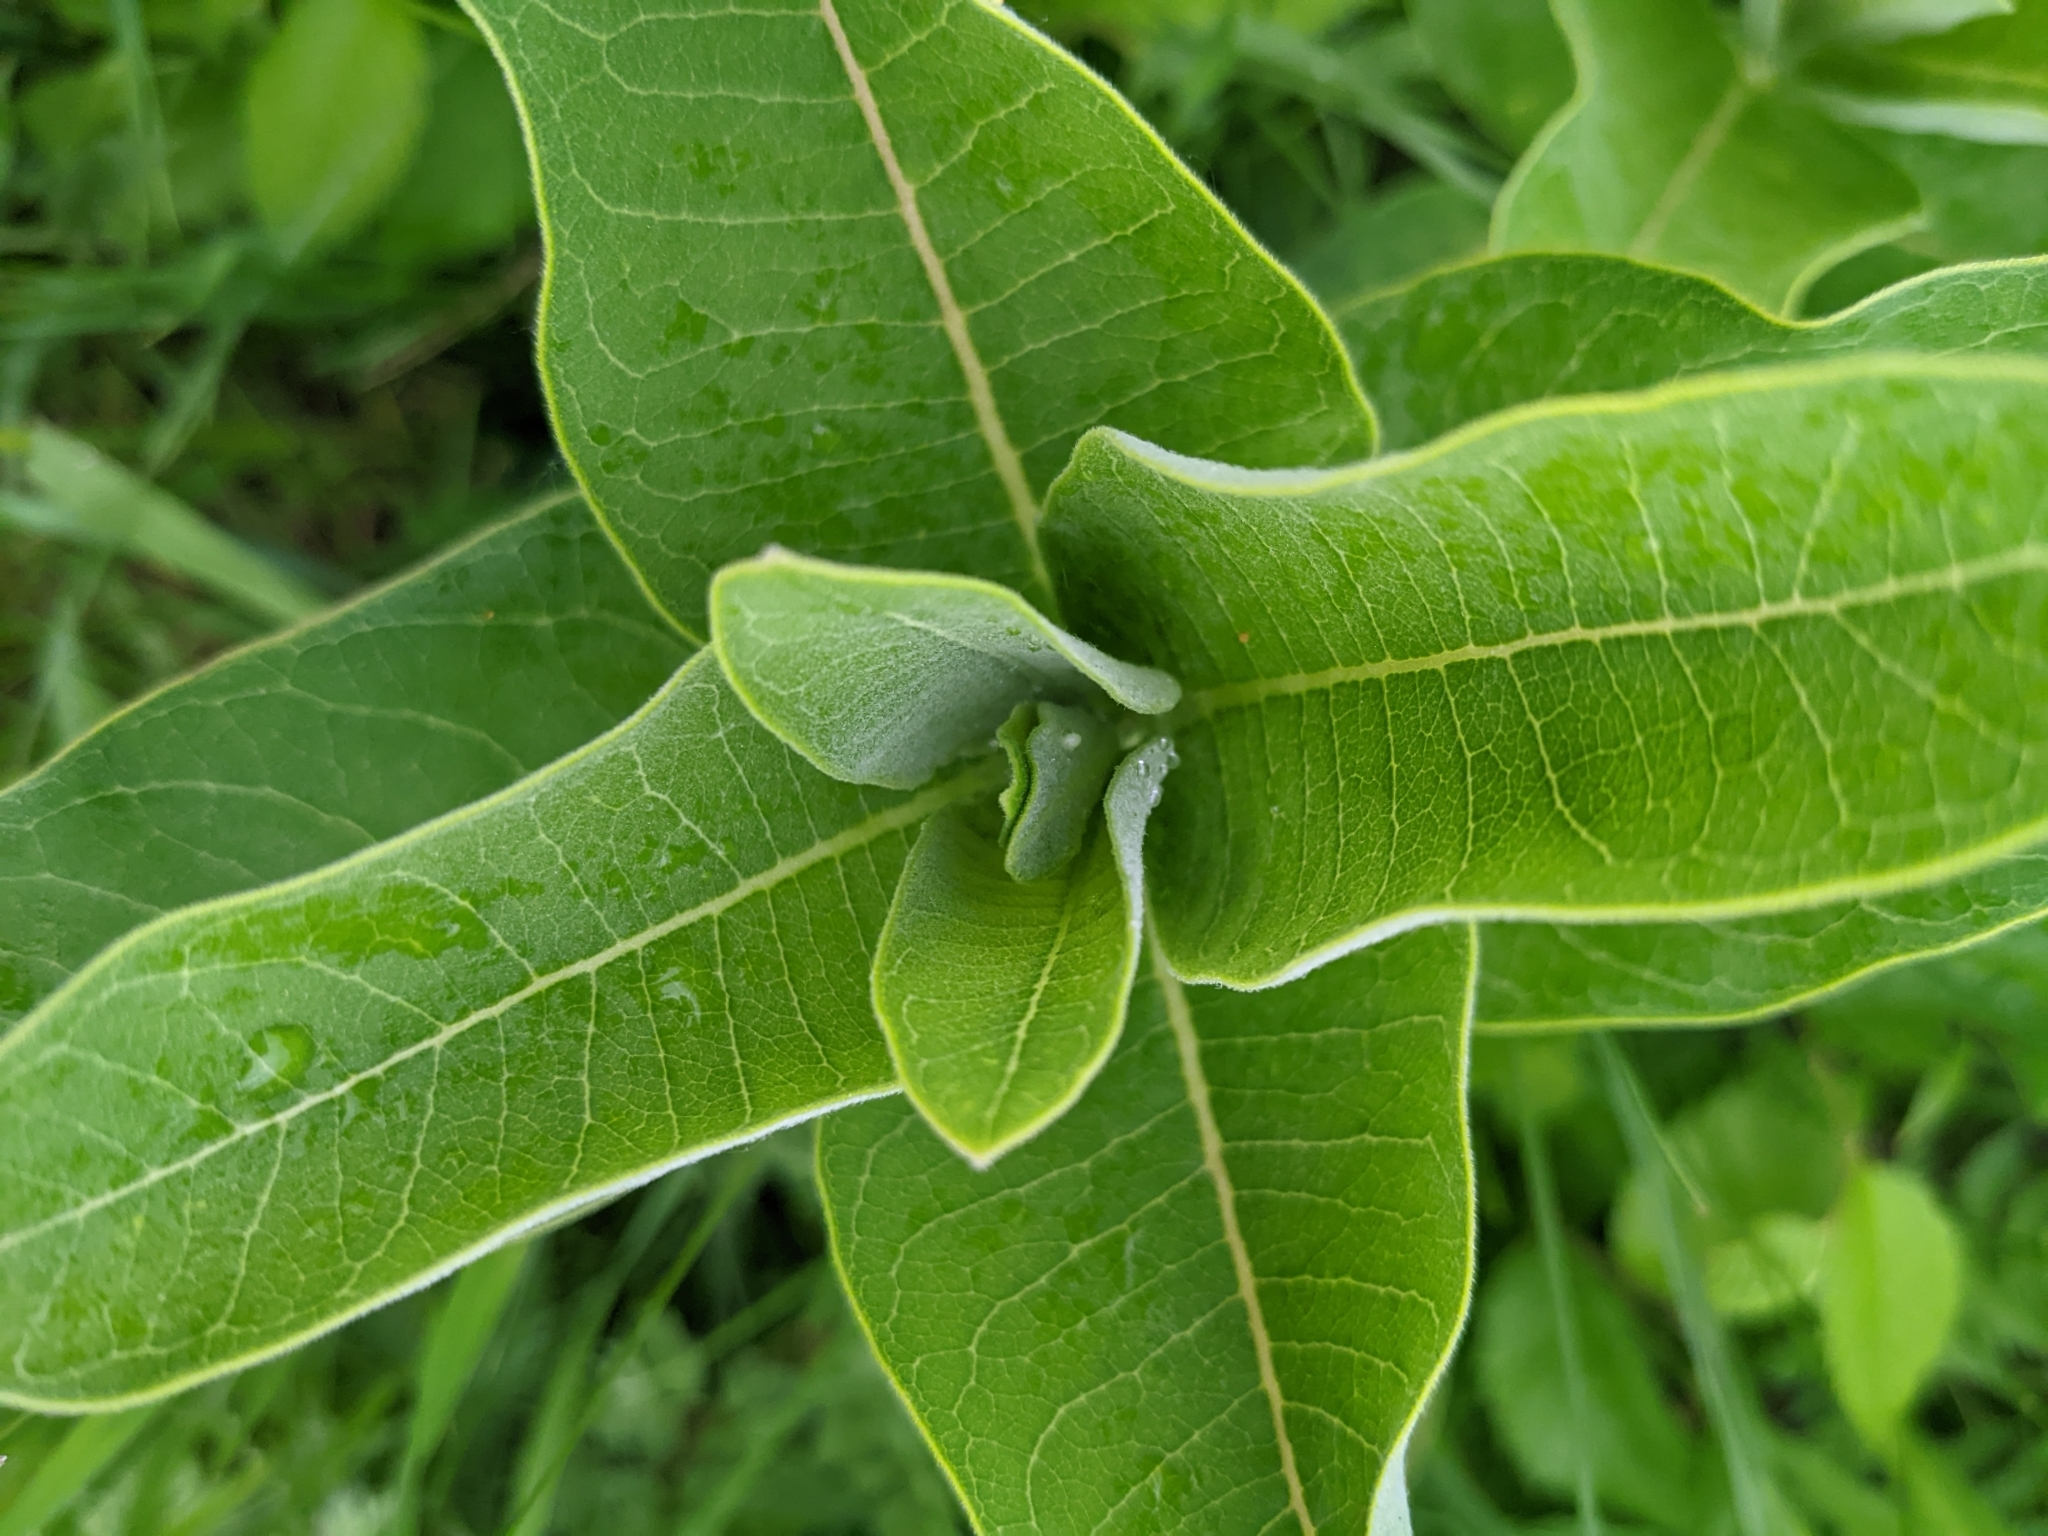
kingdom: Plantae
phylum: Tracheophyta
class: Magnoliopsida
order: Gentianales
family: Apocynaceae
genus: Asclepias
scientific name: Asclepias syriaca
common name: Common milkweed
